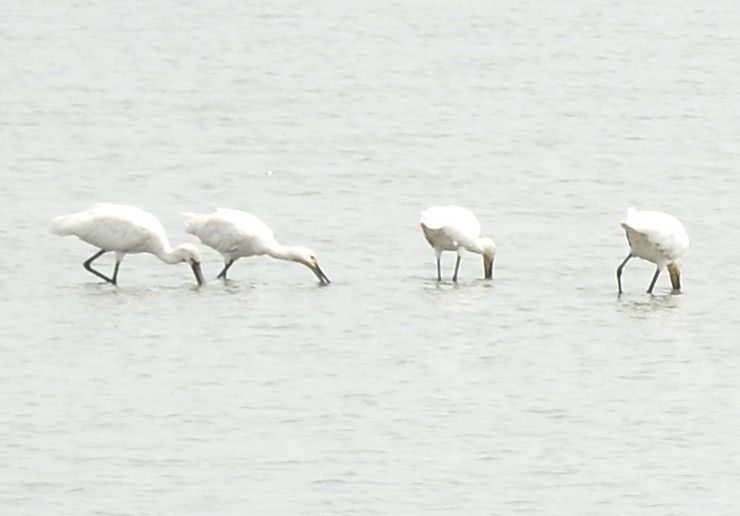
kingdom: Animalia
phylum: Chordata
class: Aves
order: Pelecaniformes
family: Threskiornithidae
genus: Platalea
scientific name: Platalea leucorodia
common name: Eurasian spoonbill
